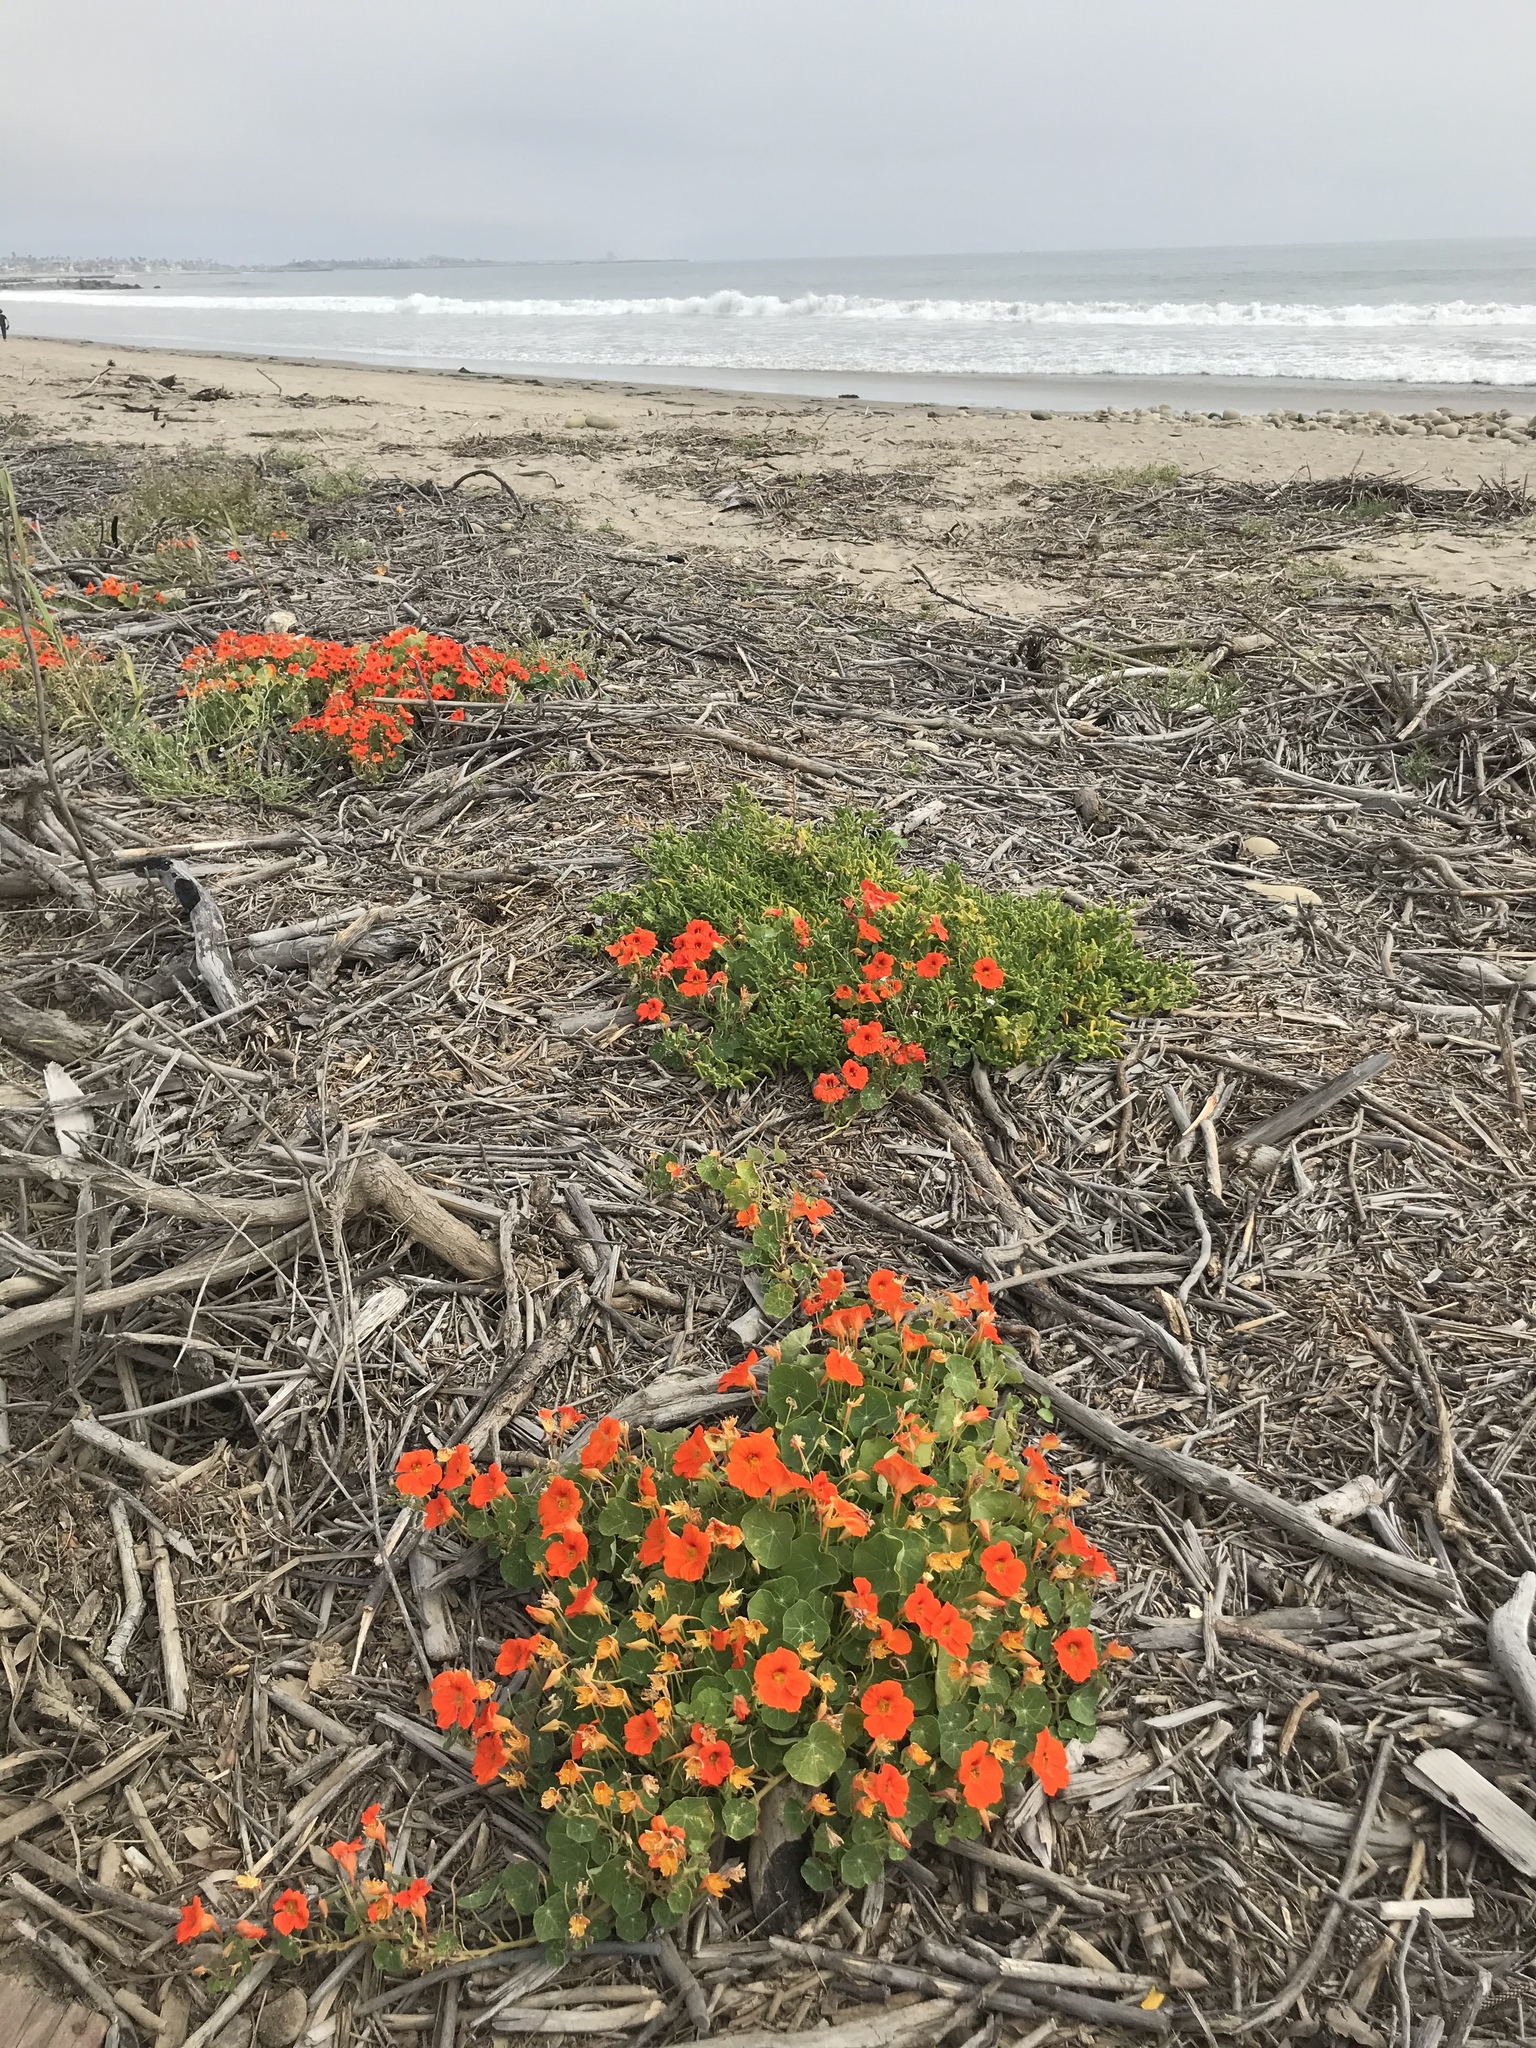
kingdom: Plantae
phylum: Tracheophyta
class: Magnoliopsida
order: Brassicales
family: Tropaeolaceae
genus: Tropaeolum
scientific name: Tropaeolum majus
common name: Nasturtium
